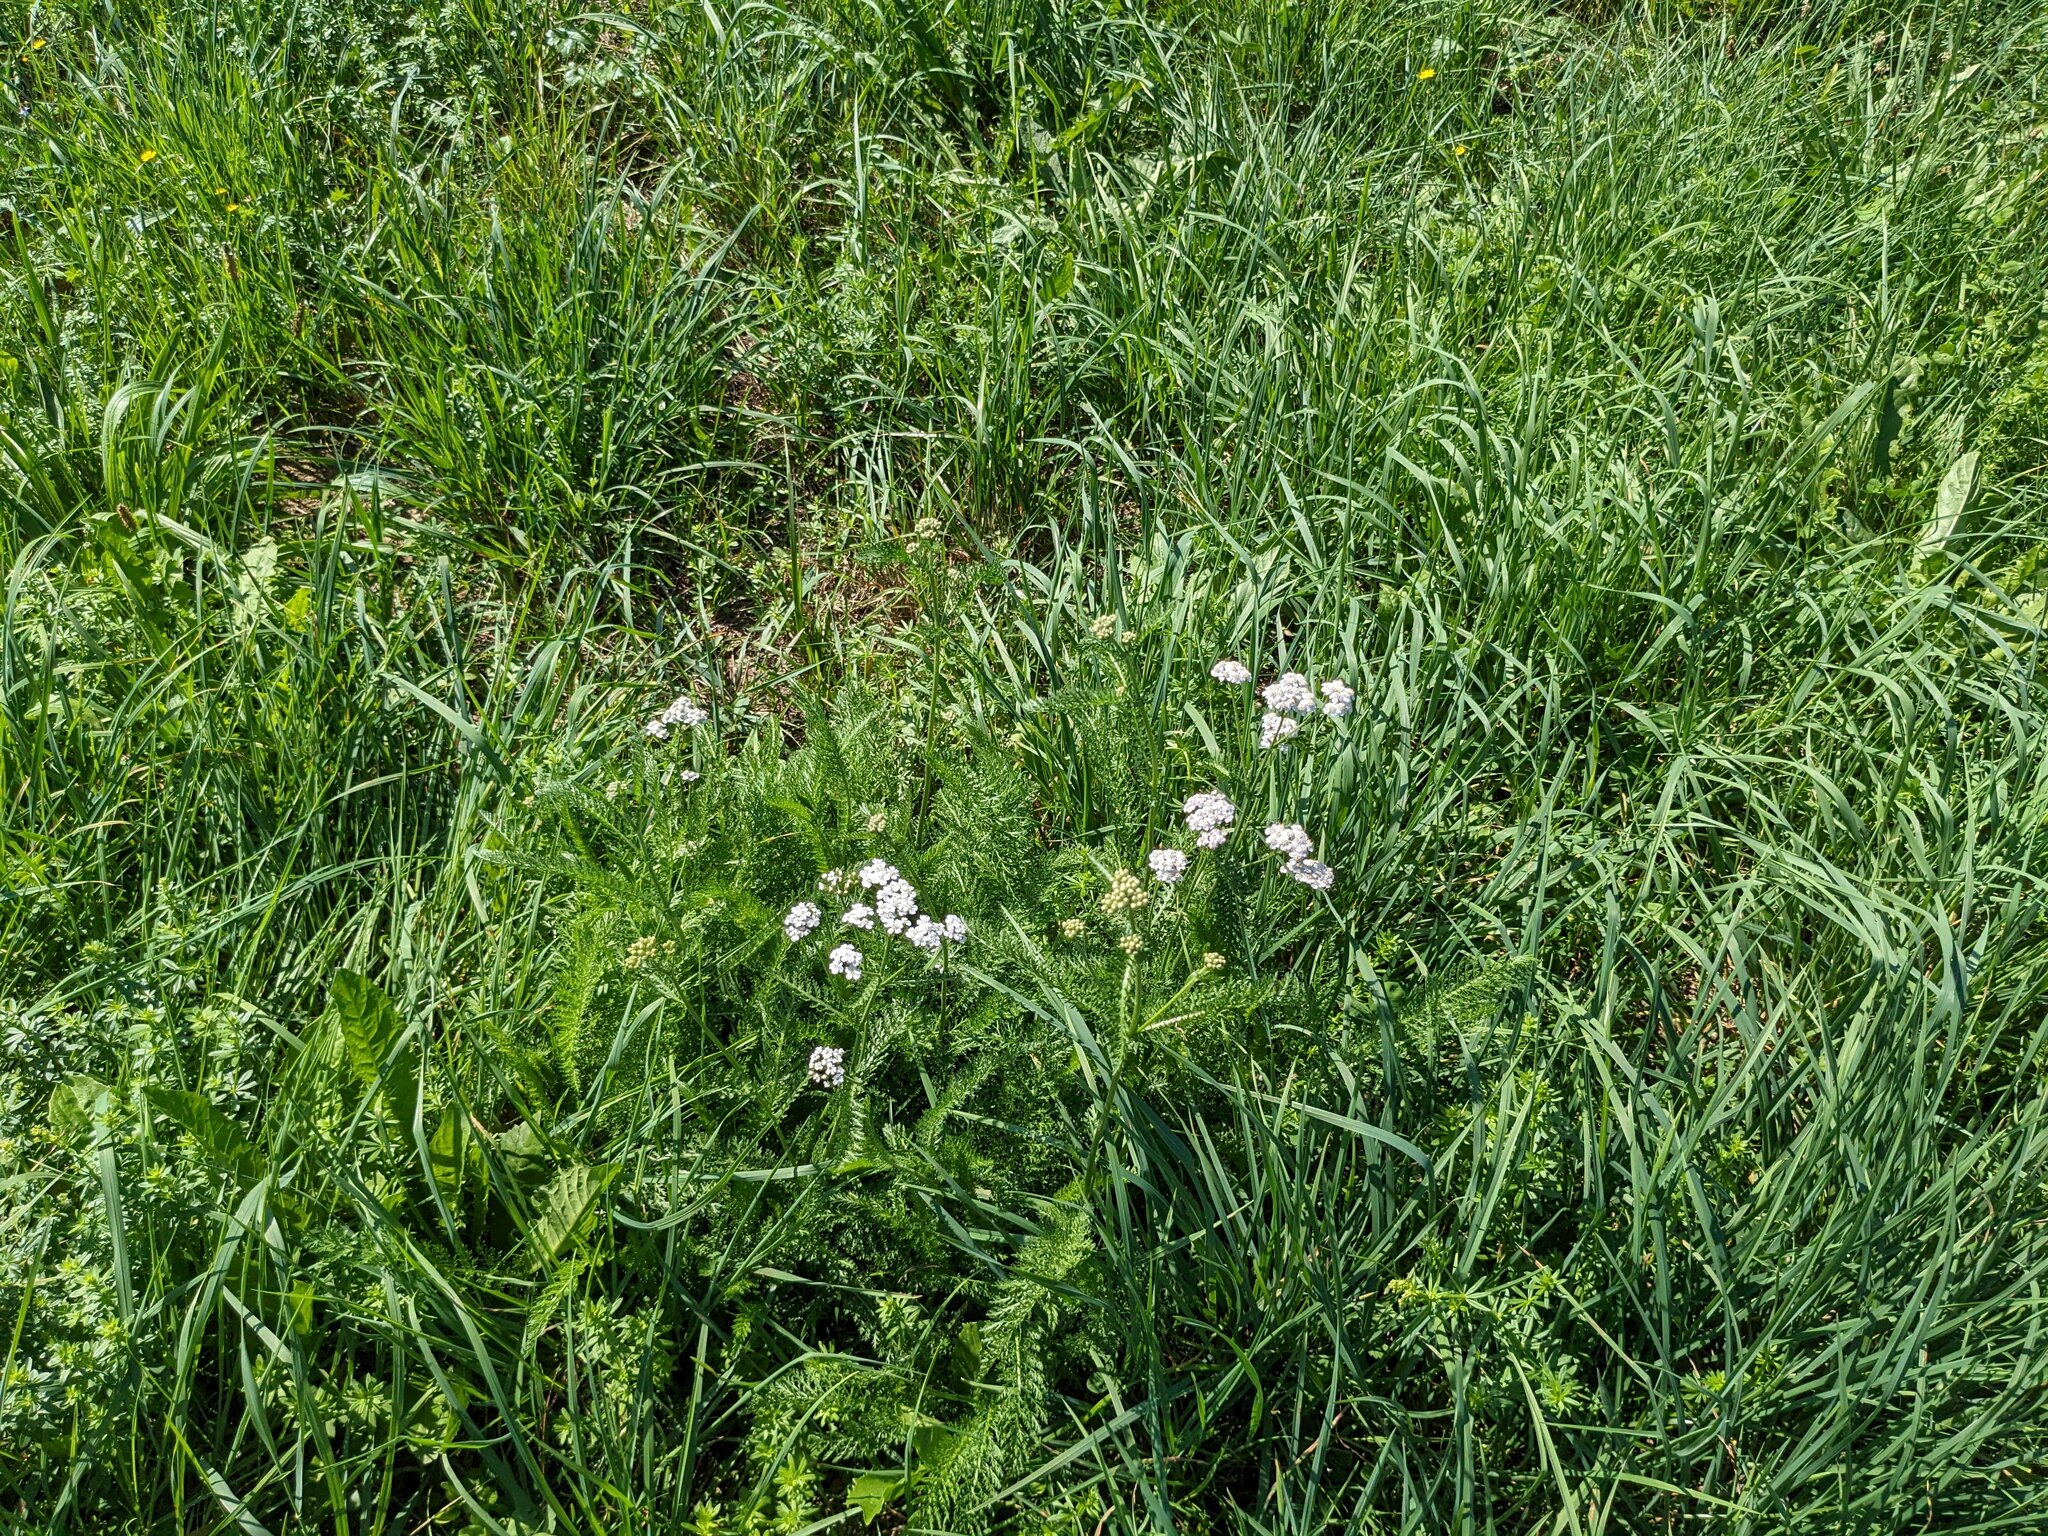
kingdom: Plantae
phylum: Tracheophyta
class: Magnoliopsida
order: Asterales
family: Asteraceae
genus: Achillea
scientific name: Achillea millefolium
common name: Yarrow
